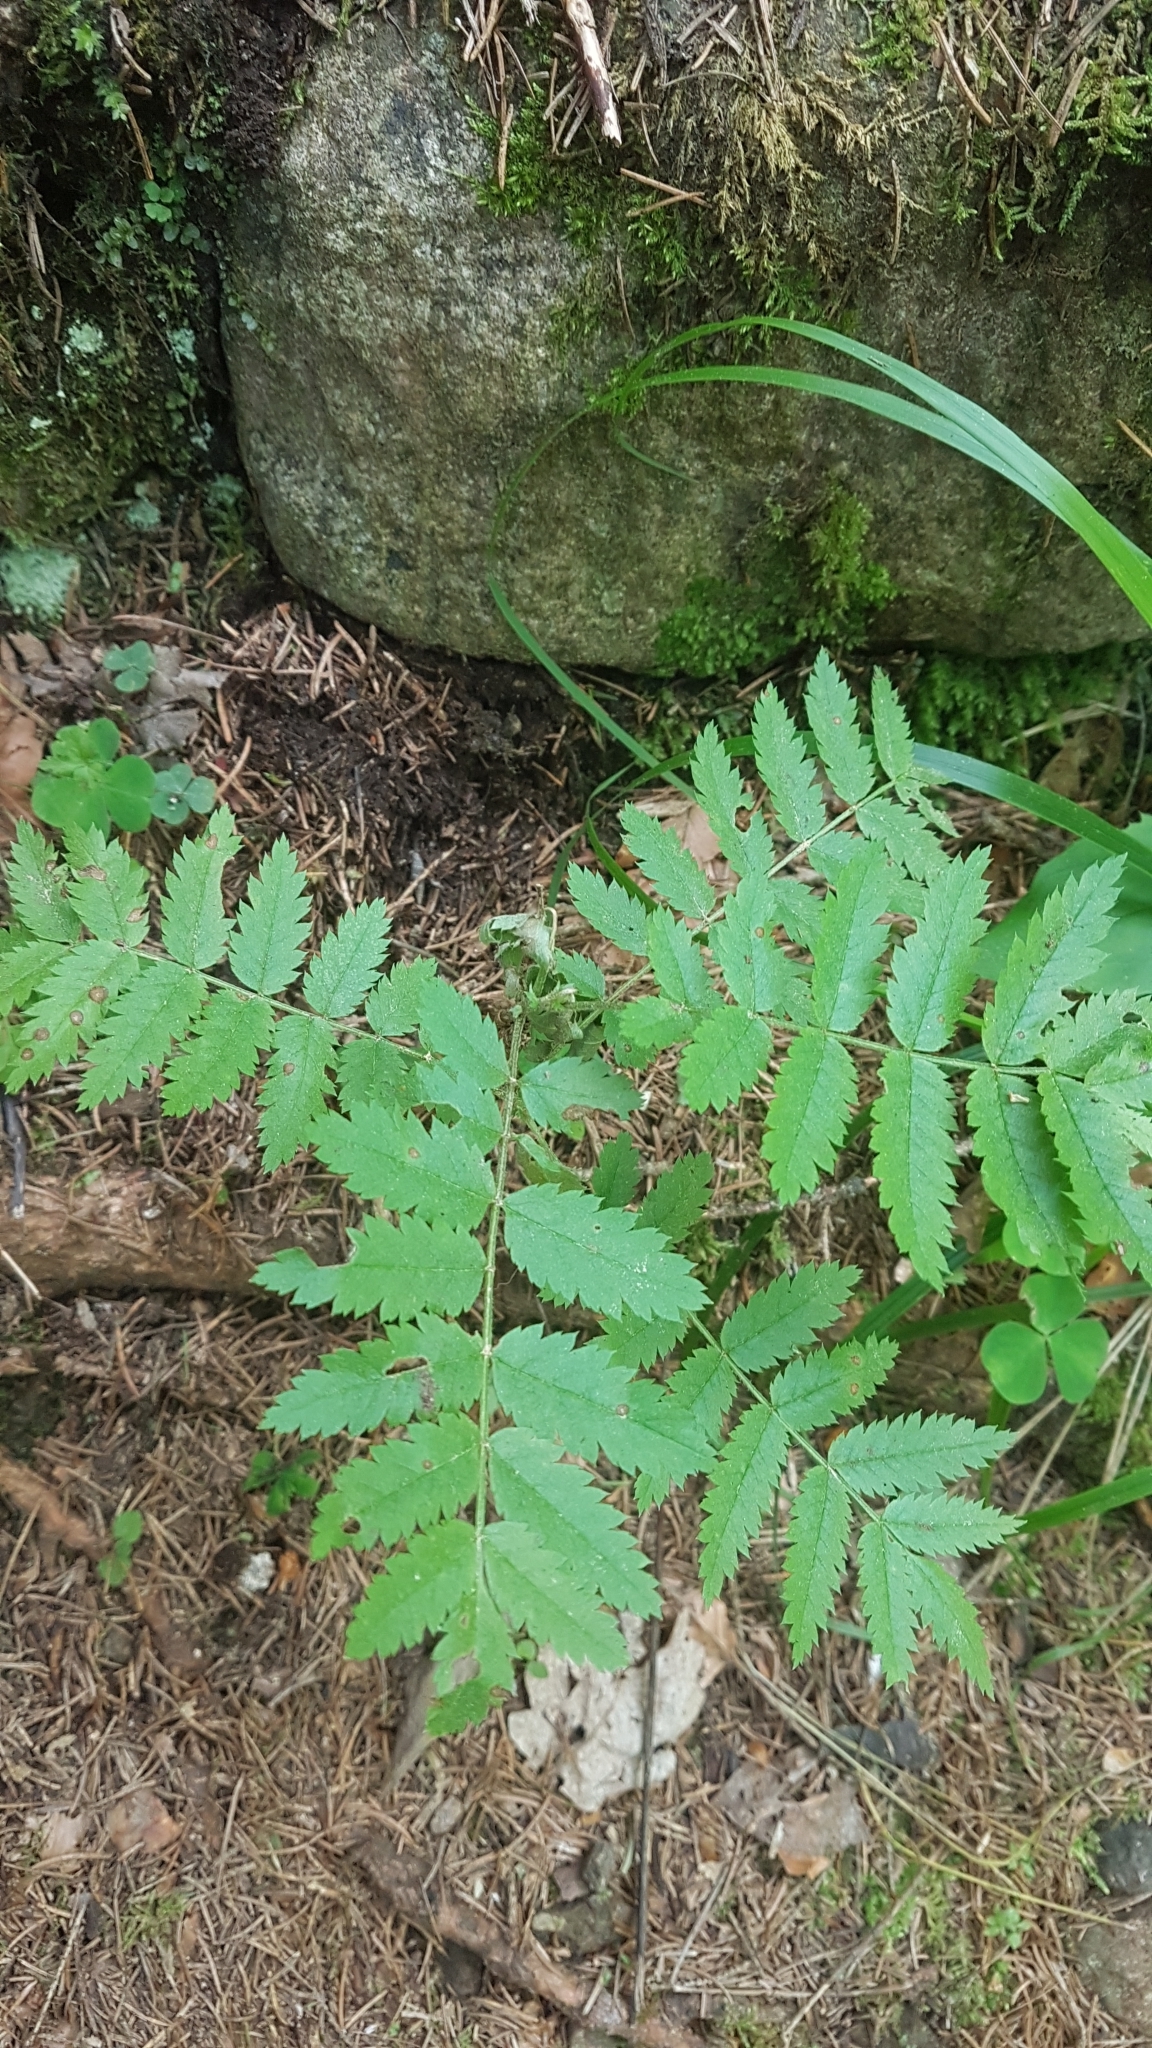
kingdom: Plantae
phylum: Tracheophyta
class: Magnoliopsida
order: Rosales
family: Rosaceae
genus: Sorbus
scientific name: Sorbus aucuparia
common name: Rowan
